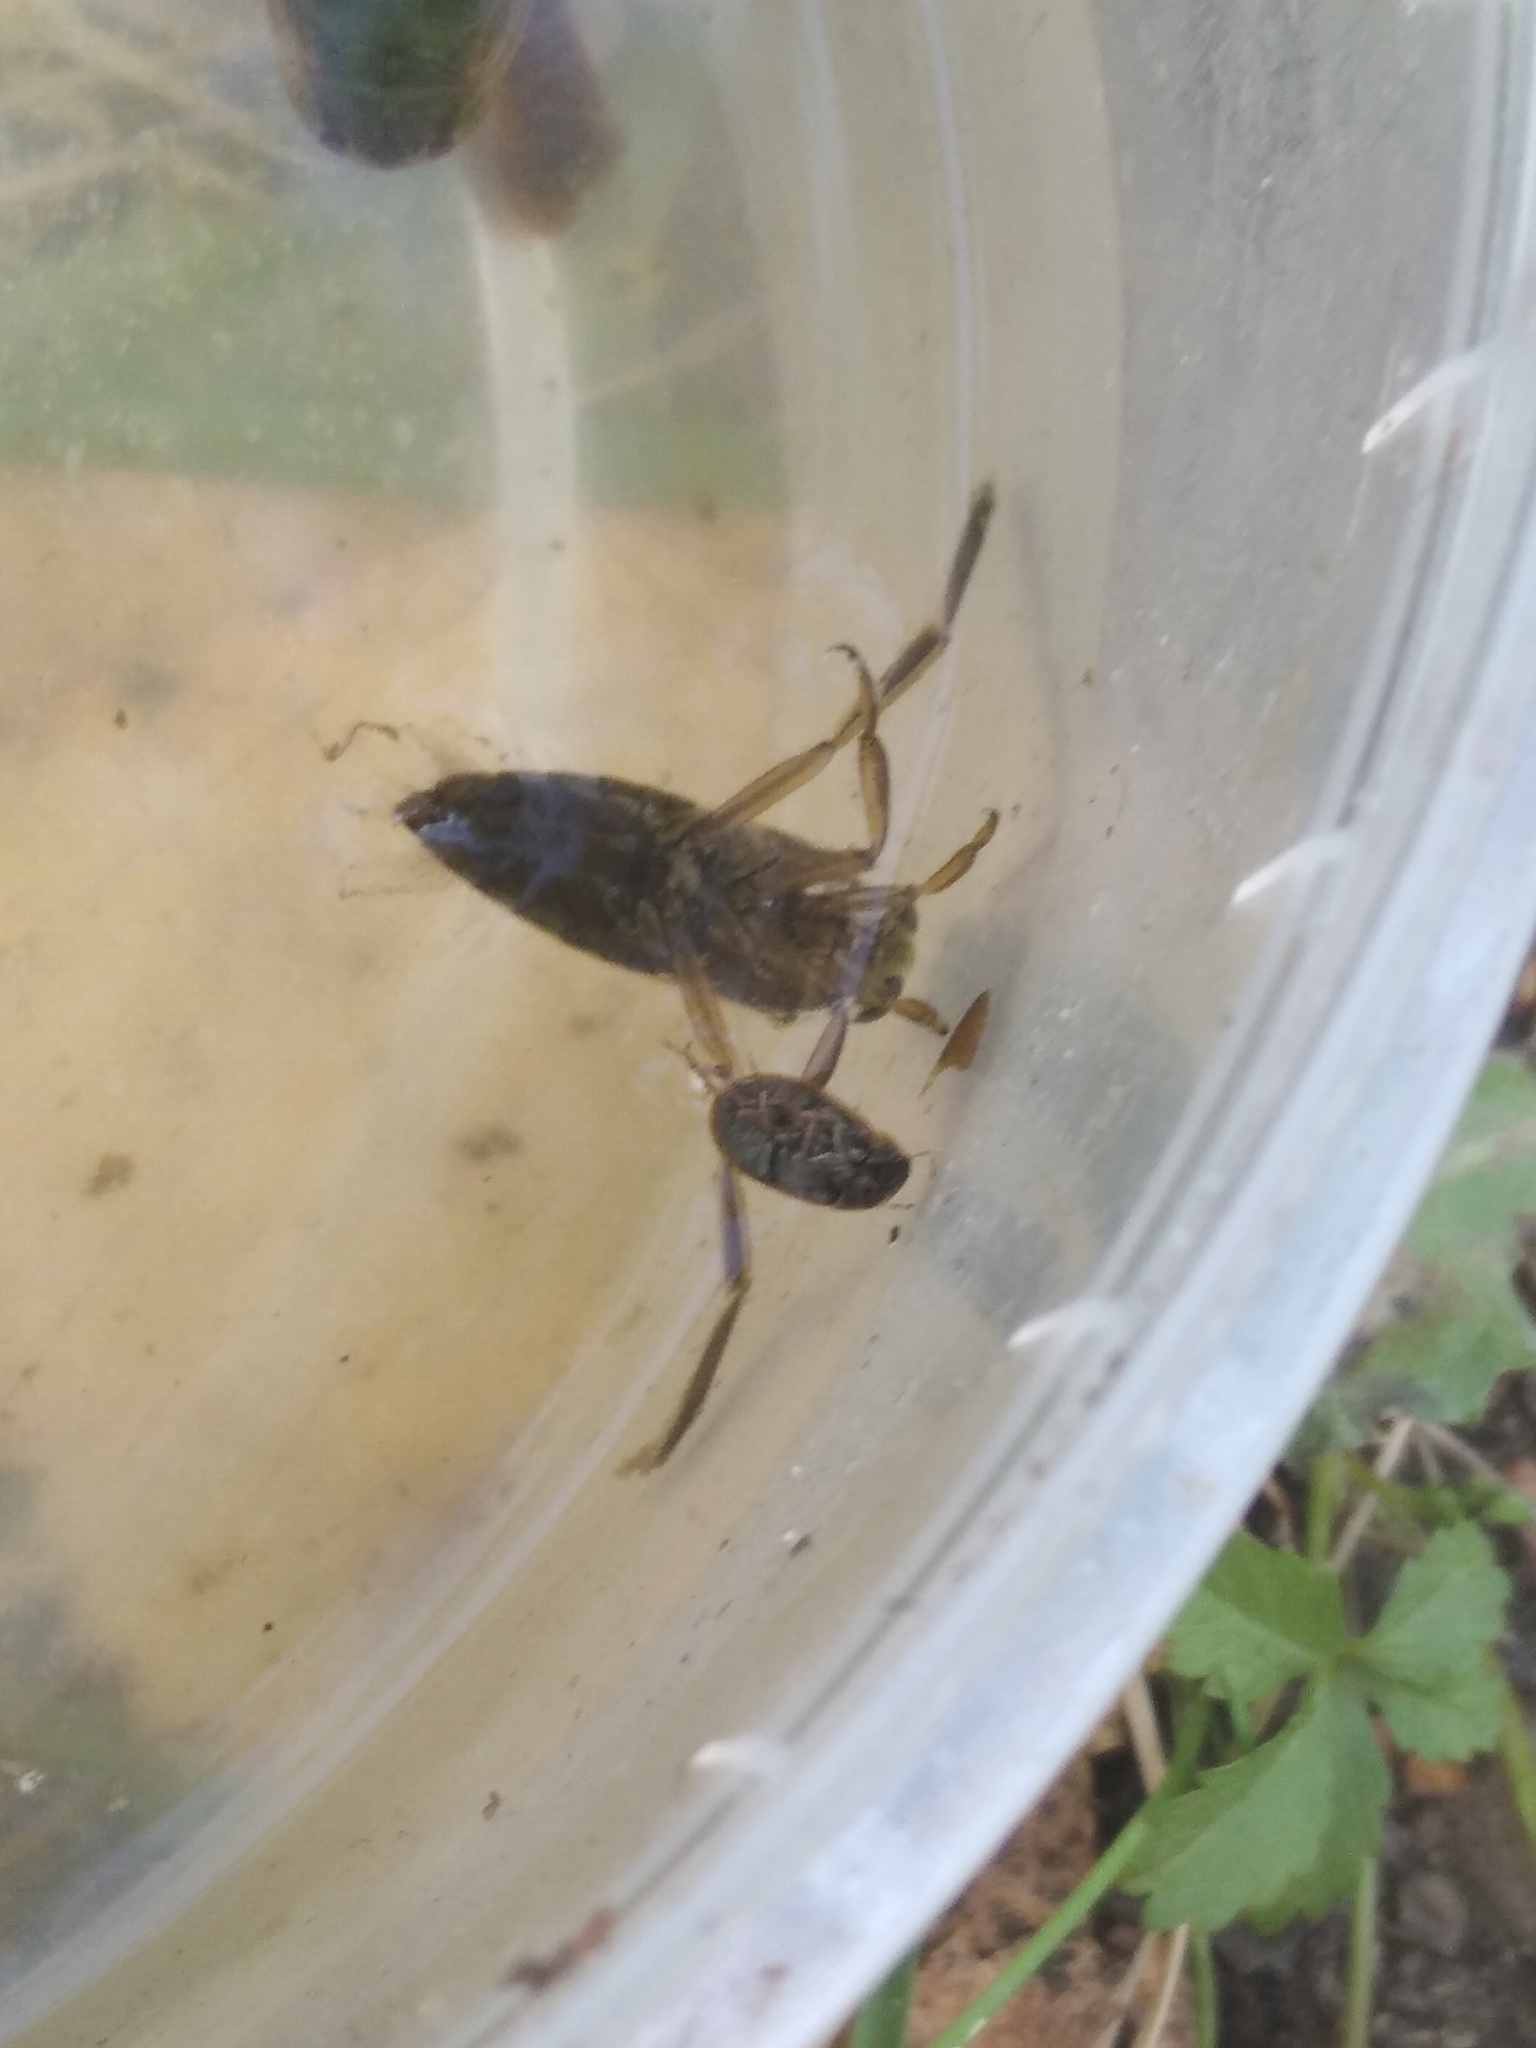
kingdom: Animalia
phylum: Arthropoda
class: Insecta
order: Hemiptera
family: Notonectidae
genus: Notonecta
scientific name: Notonecta
